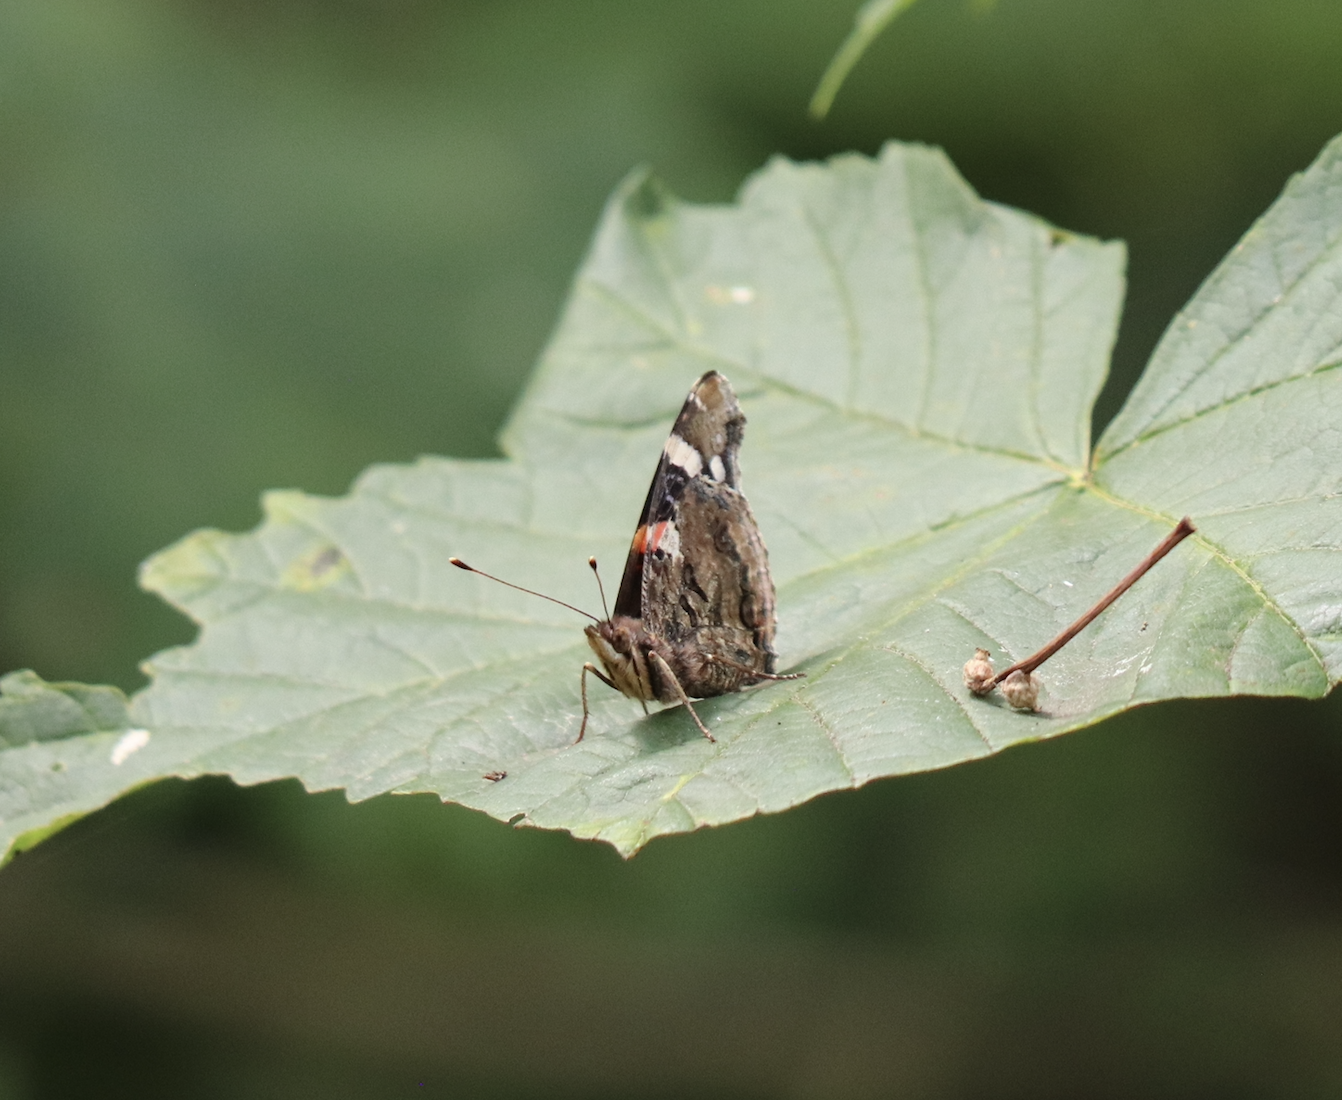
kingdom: Animalia
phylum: Arthropoda
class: Insecta
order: Lepidoptera
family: Nymphalidae
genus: Vanessa
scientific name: Vanessa atalanta
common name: Red admiral
